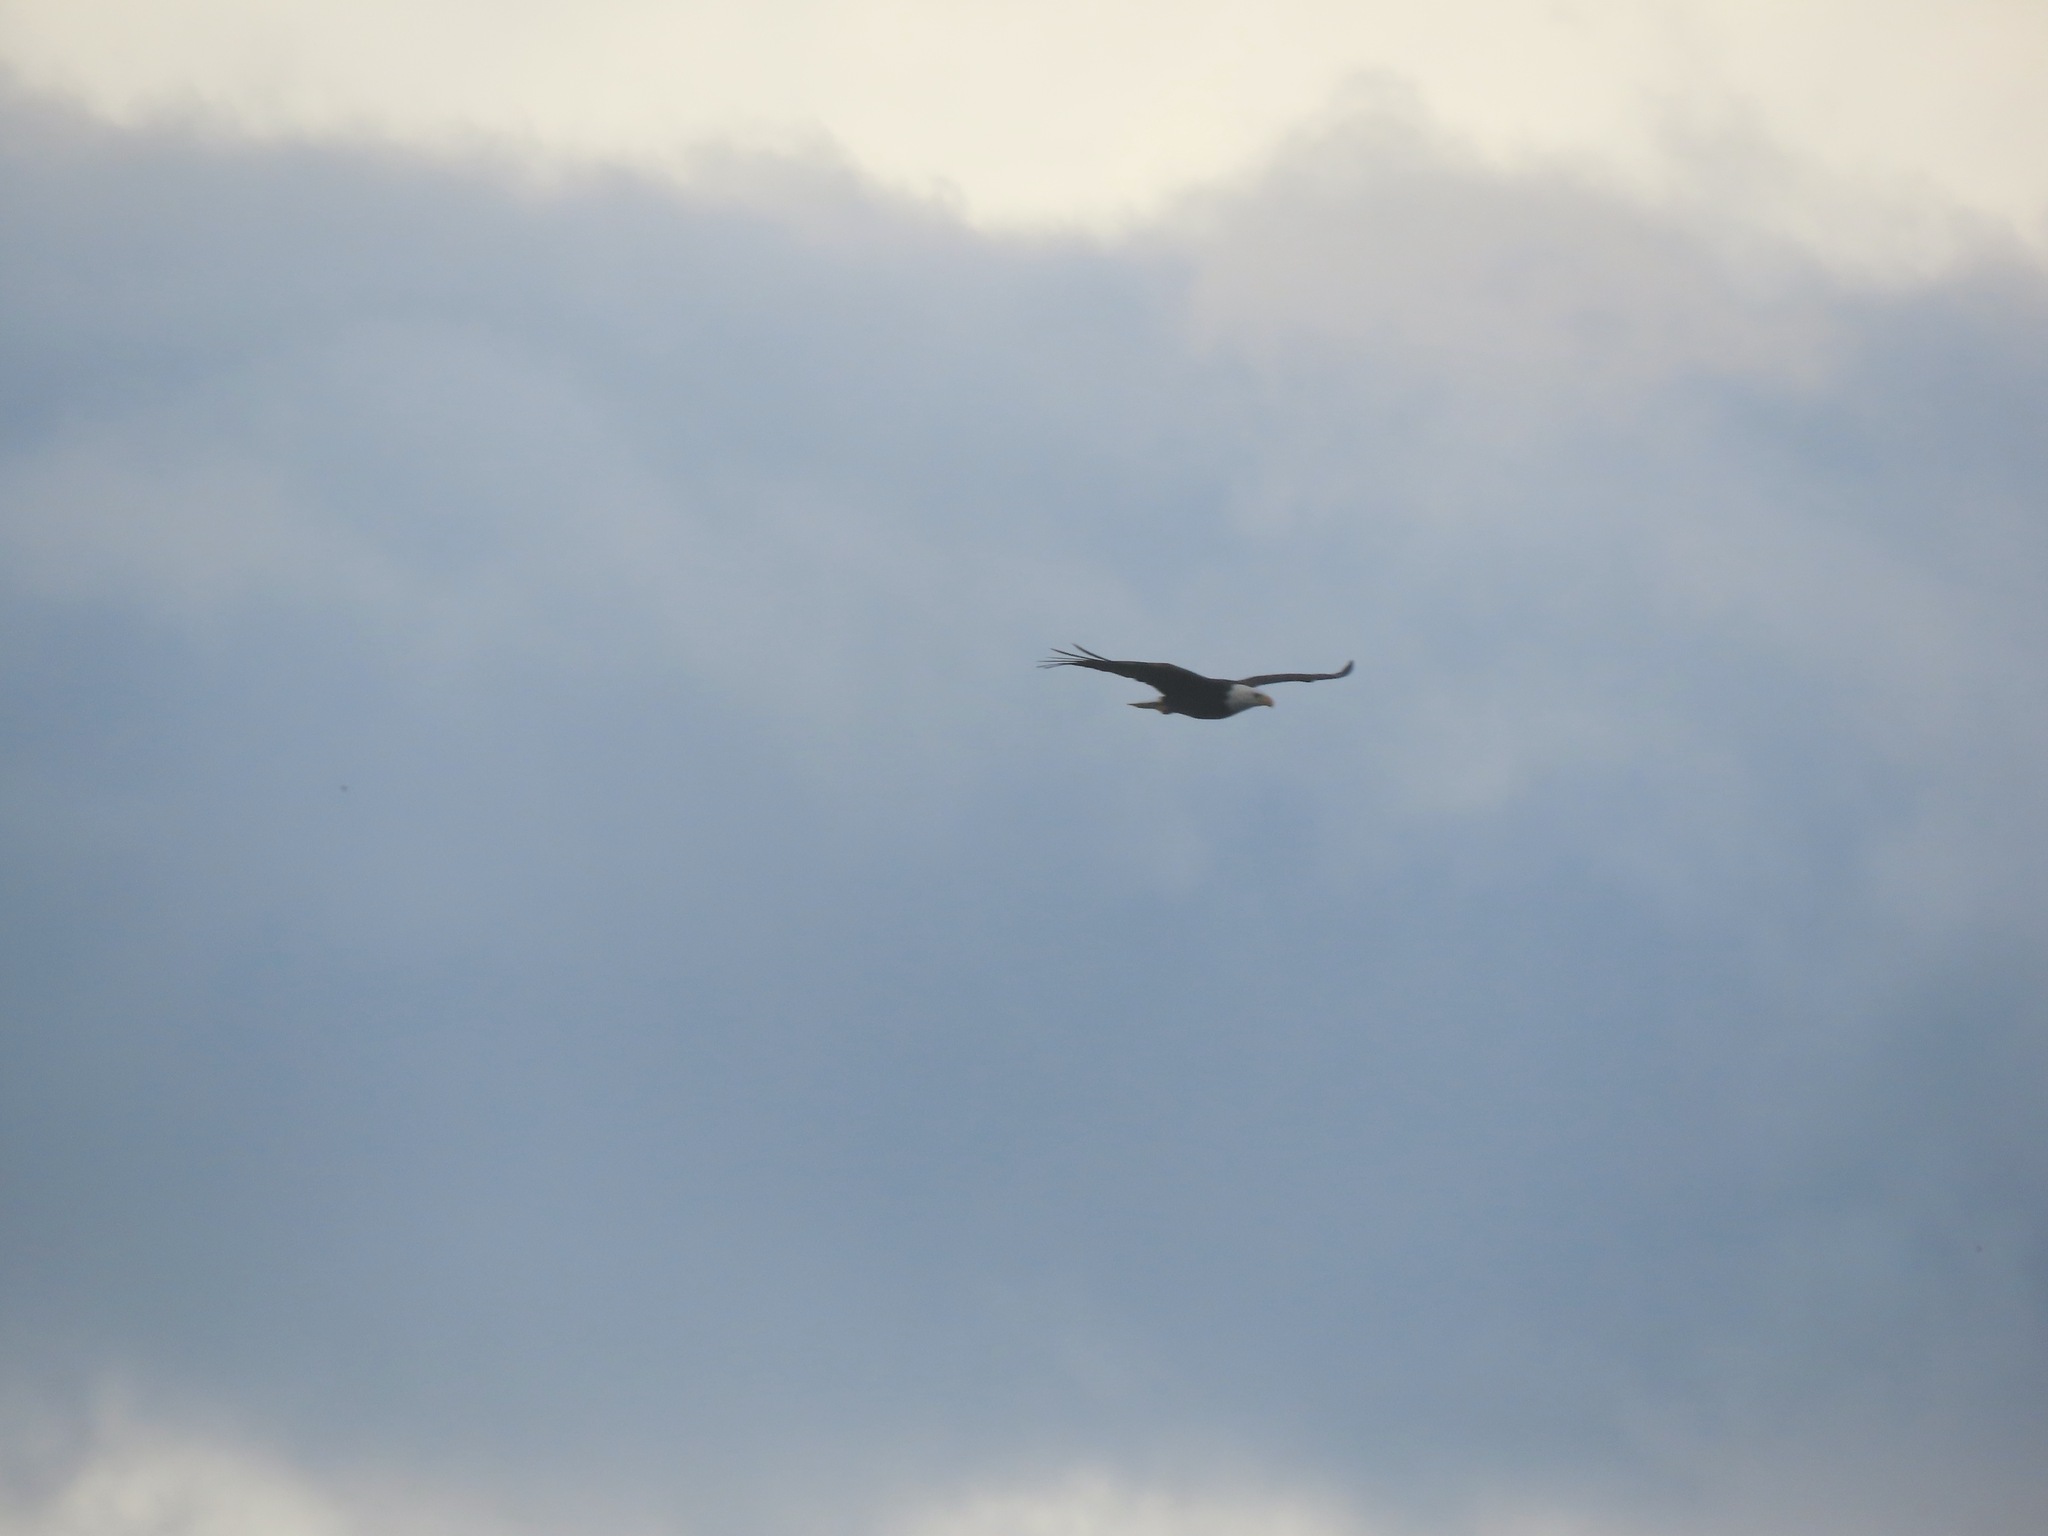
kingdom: Animalia
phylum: Chordata
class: Aves
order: Accipitriformes
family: Accipitridae
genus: Haliaeetus
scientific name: Haliaeetus leucocephalus
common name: Bald eagle
